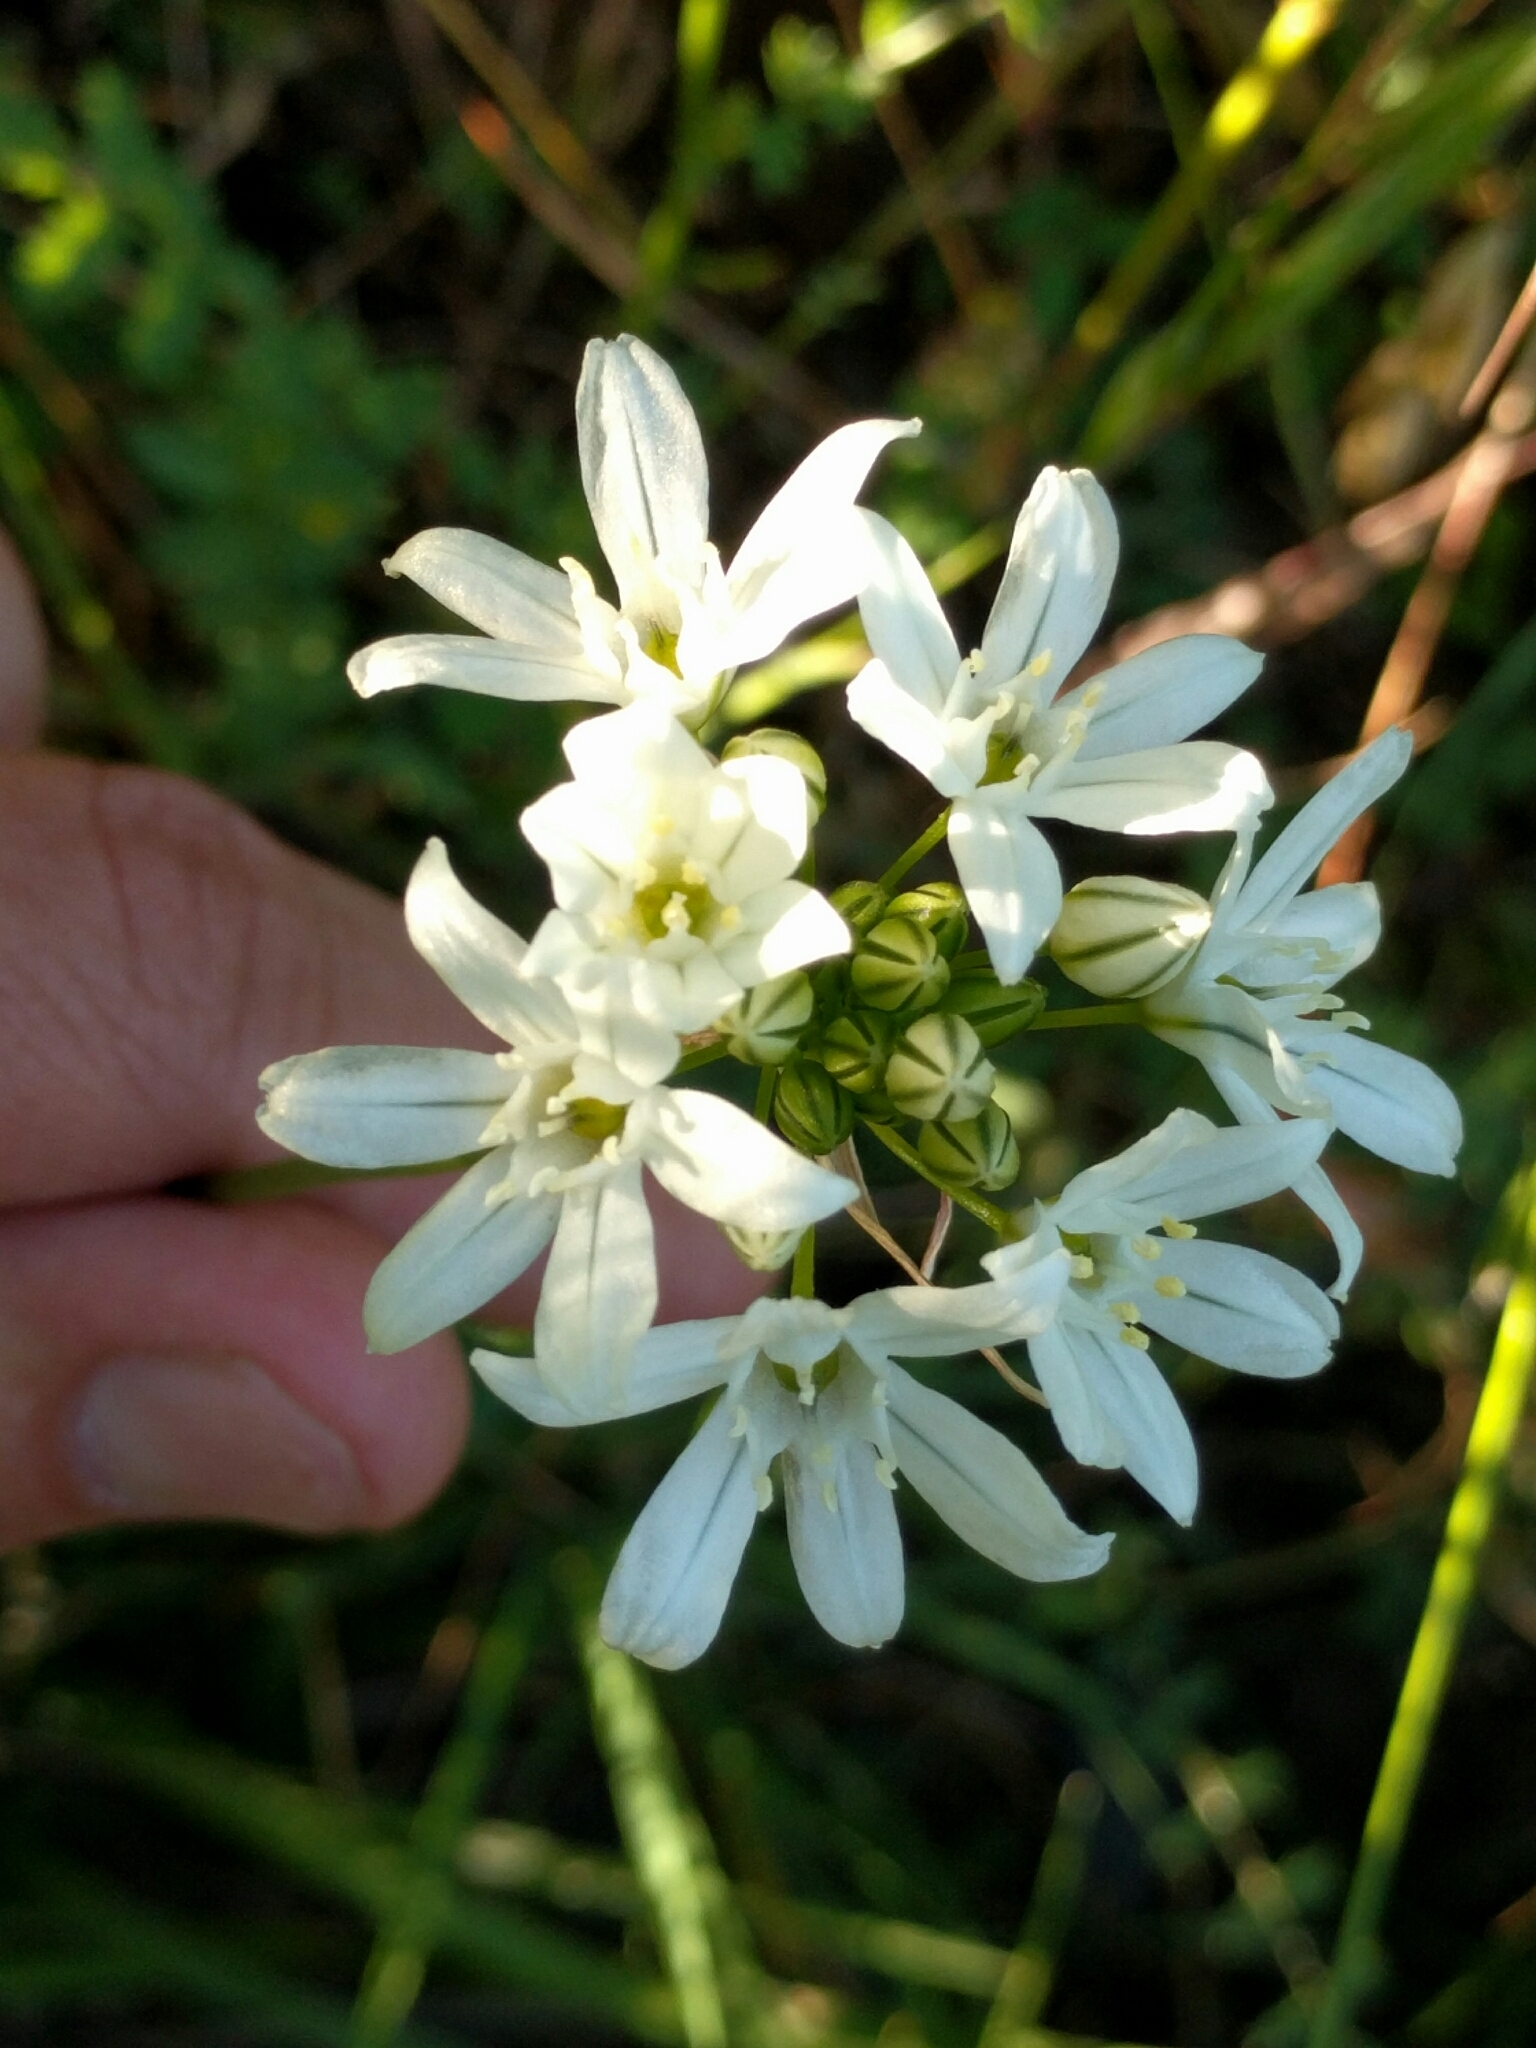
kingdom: Plantae
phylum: Tracheophyta
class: Liliopsida
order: Asparagales
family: Asparagaceae
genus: Triteleia
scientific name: Triteleia hyacinthina
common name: White brodiaea
